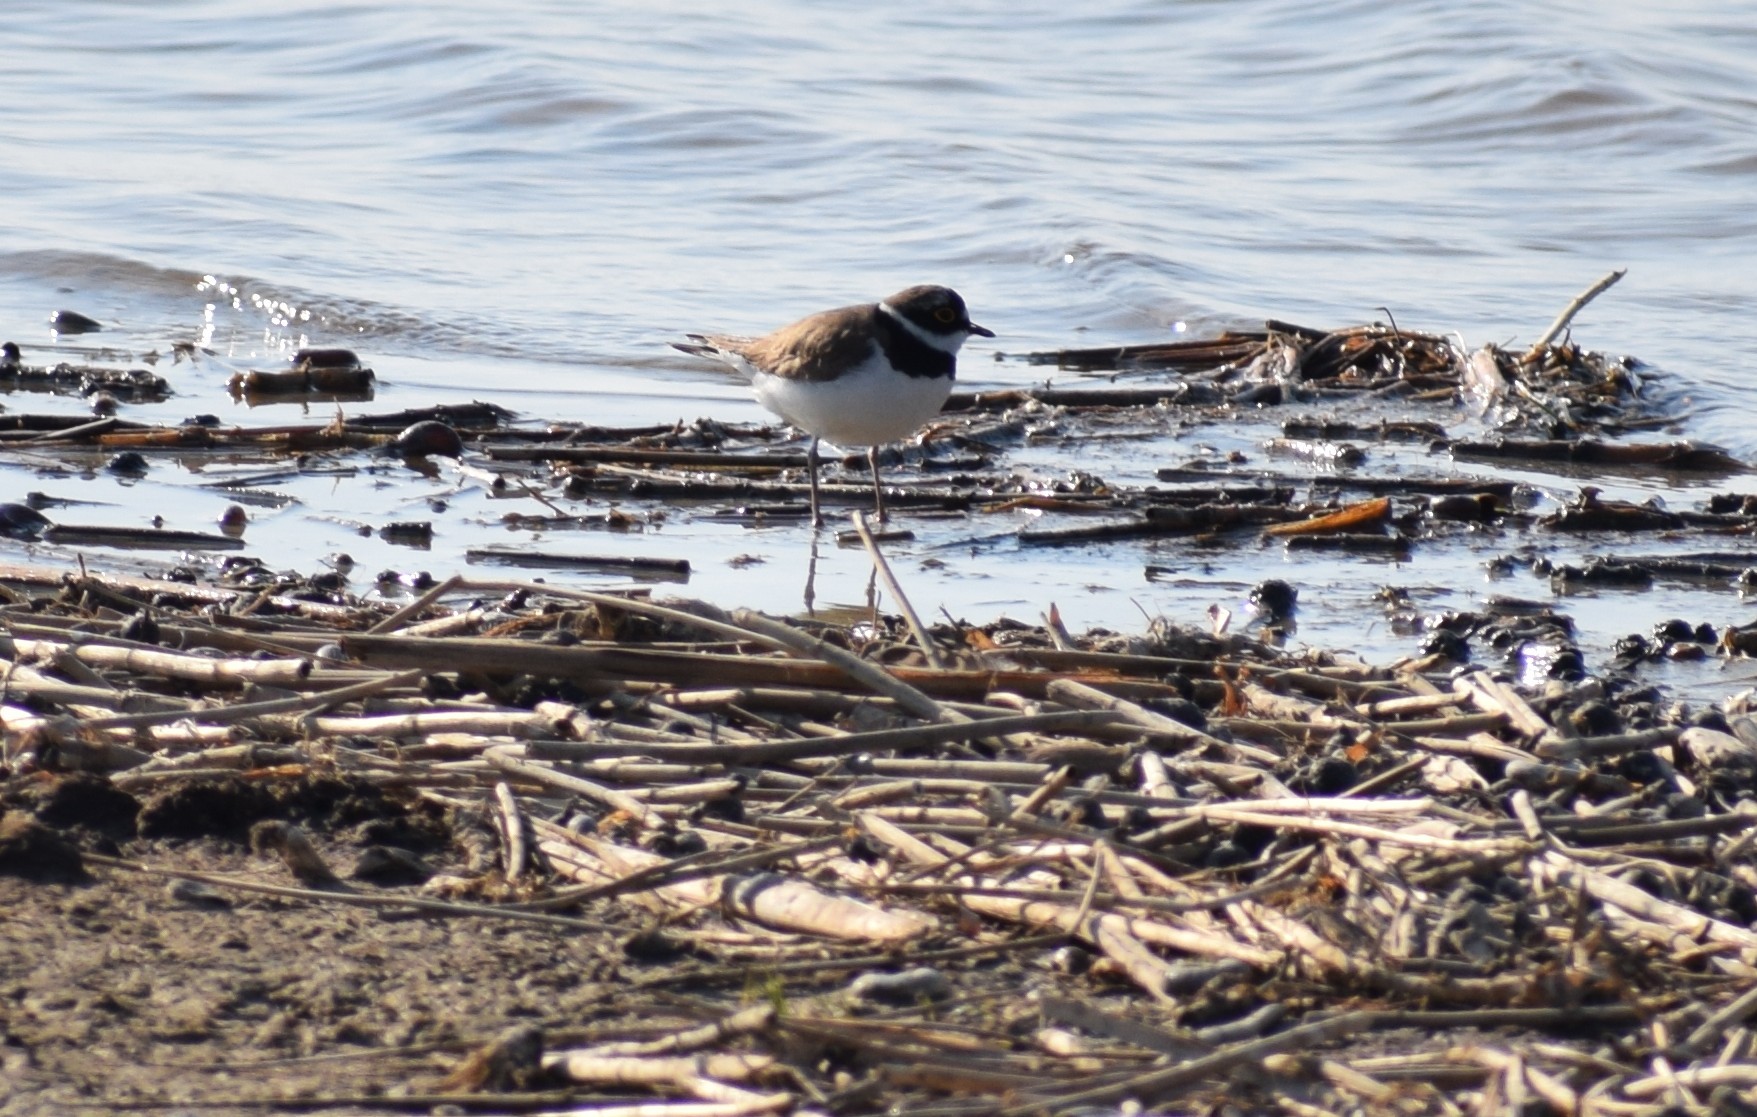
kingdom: Animalia
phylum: Chordata
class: Aves
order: Charadriiformes
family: Charadriidae
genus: Charadrius
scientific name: Charadrius dubius
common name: Little ringed plover
